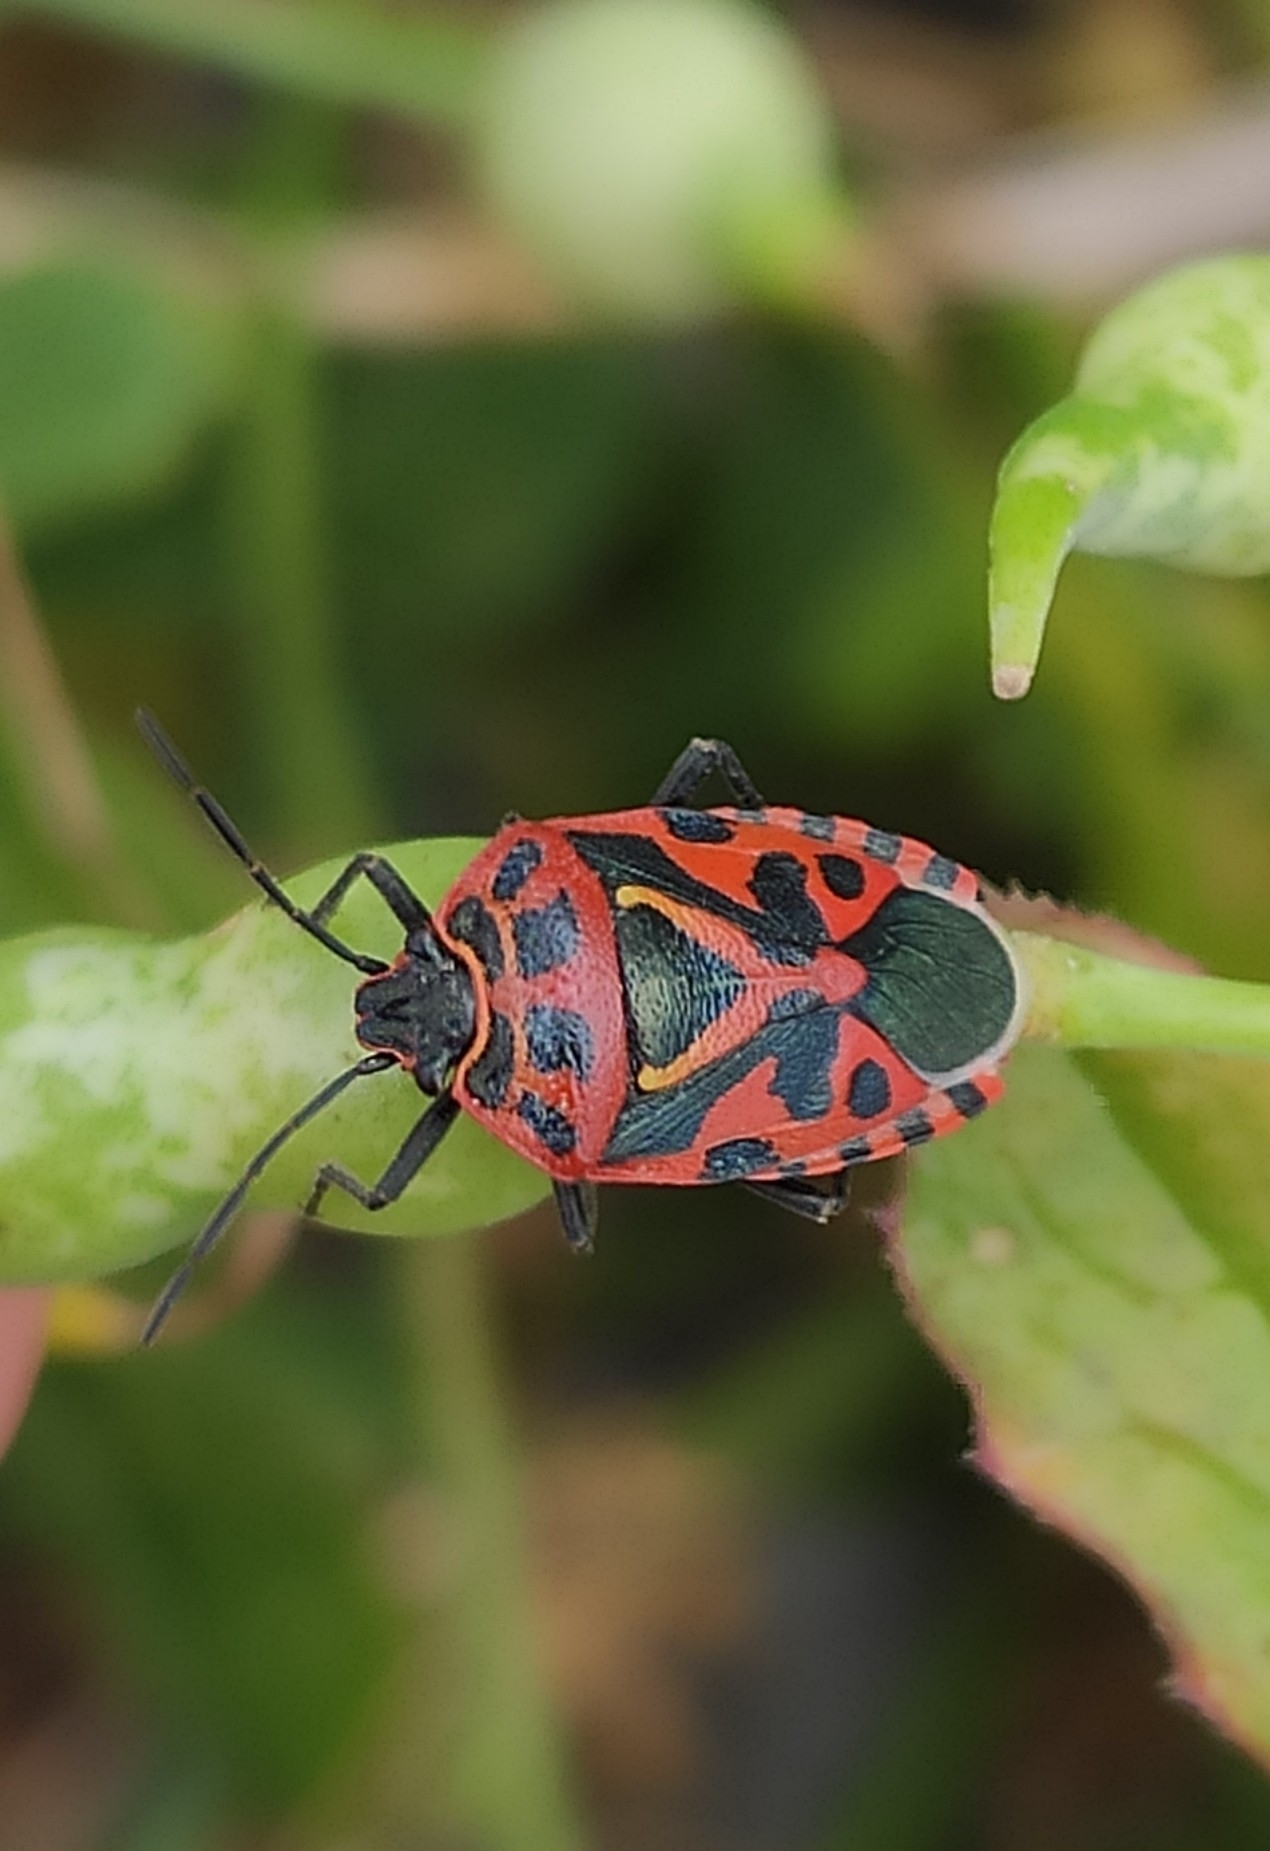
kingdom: Animalia
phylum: Arthropoda
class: Insecta
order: Hemiptera
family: Pentatomidae
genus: Eurydema
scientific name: Eurydema ventralis
